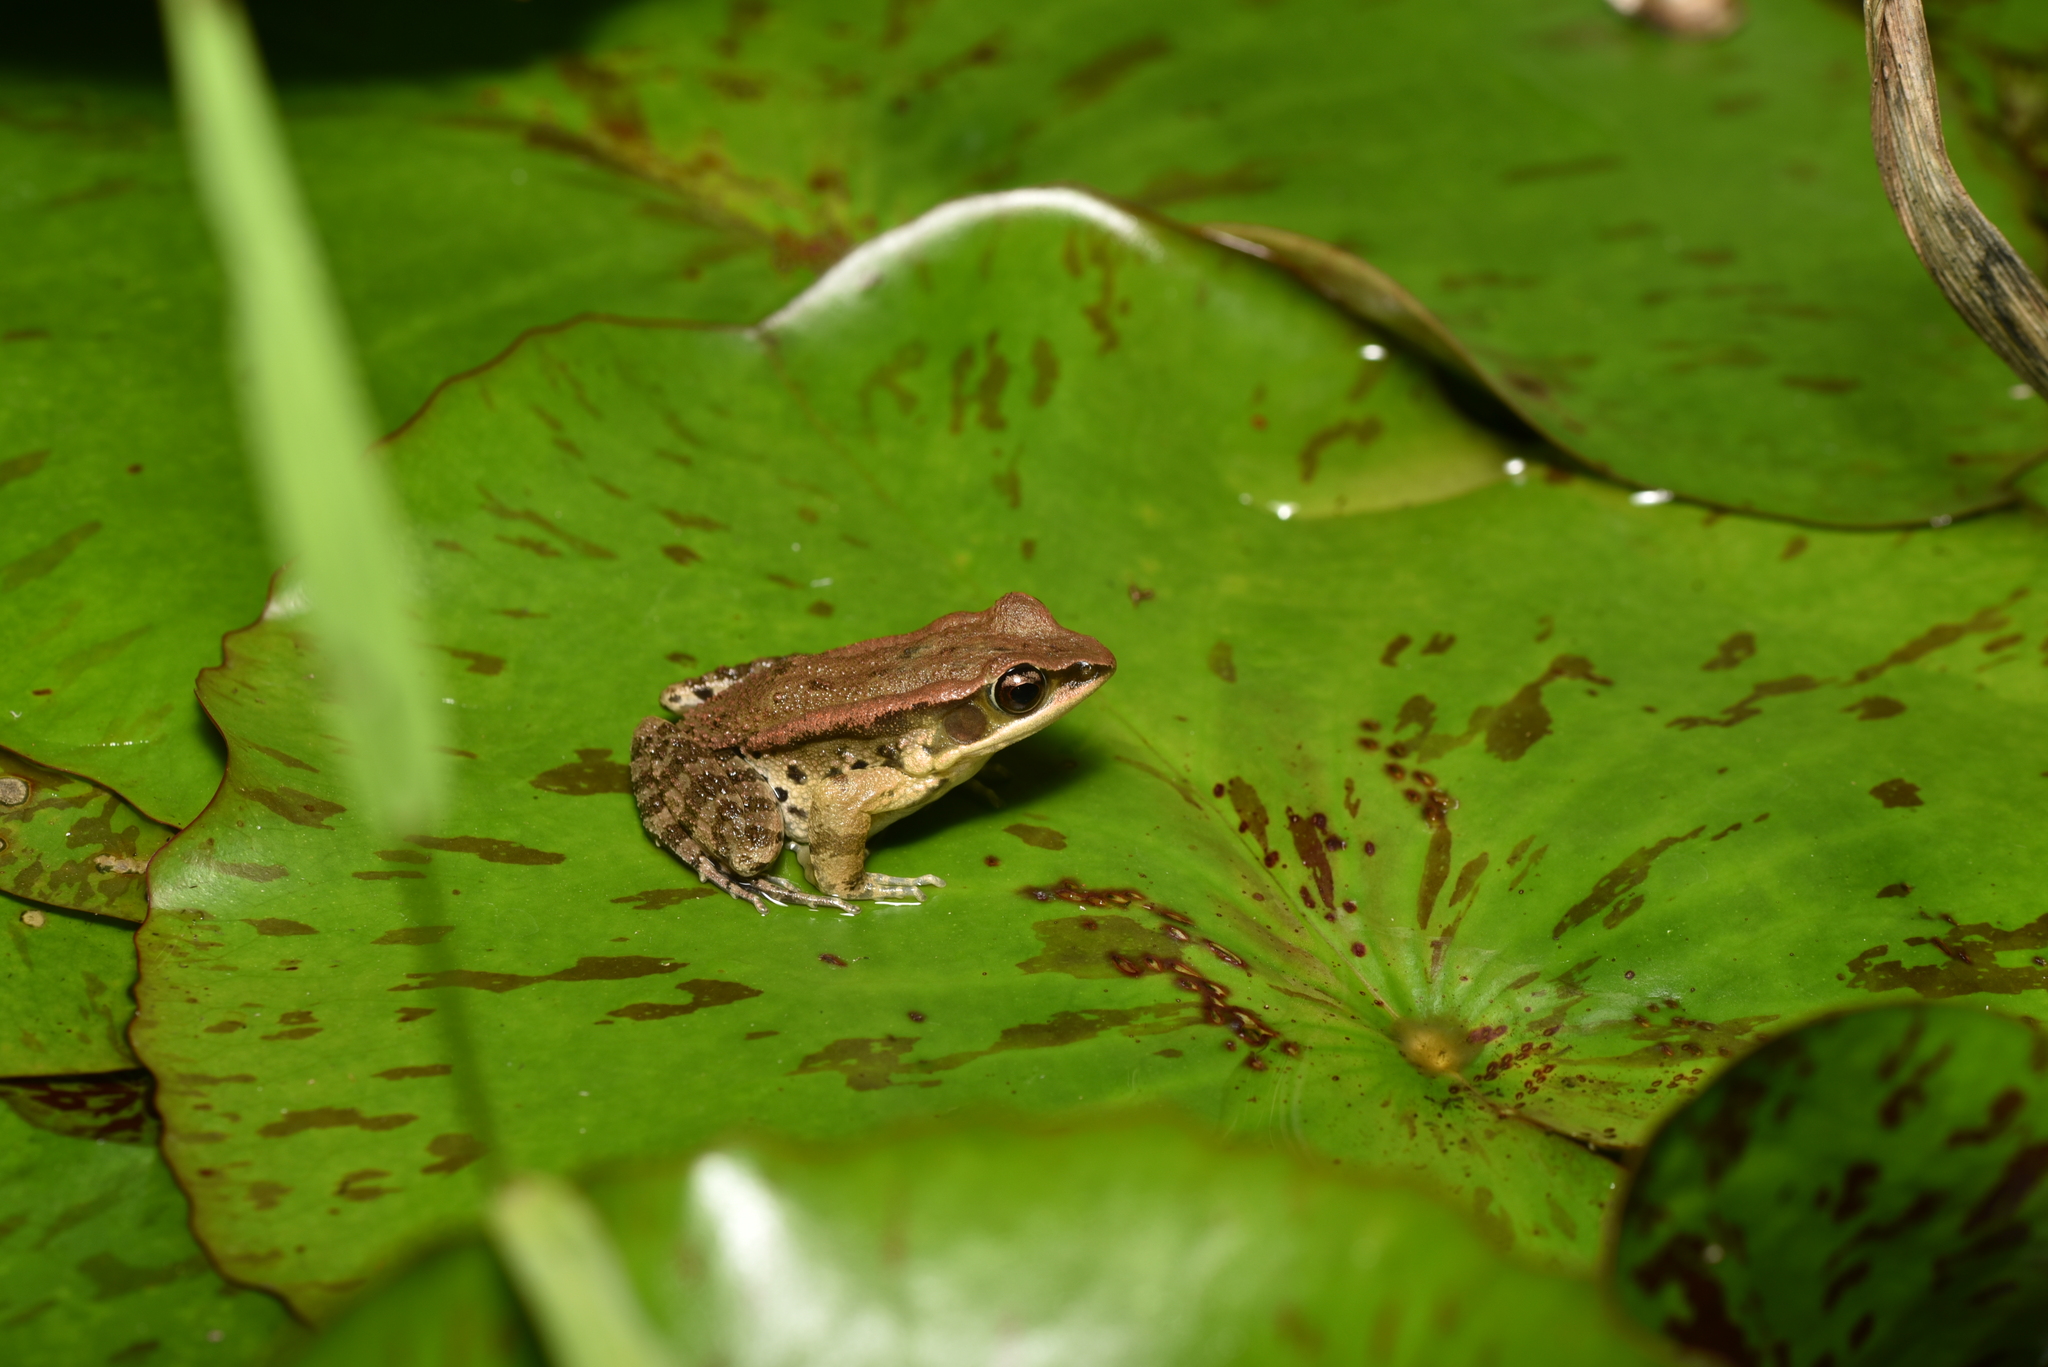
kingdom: Animalia
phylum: Chordata
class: Amphibia
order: Anura
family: Ranidae
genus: Hylarana
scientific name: Hylarana latouchii
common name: Broad-folded frog
